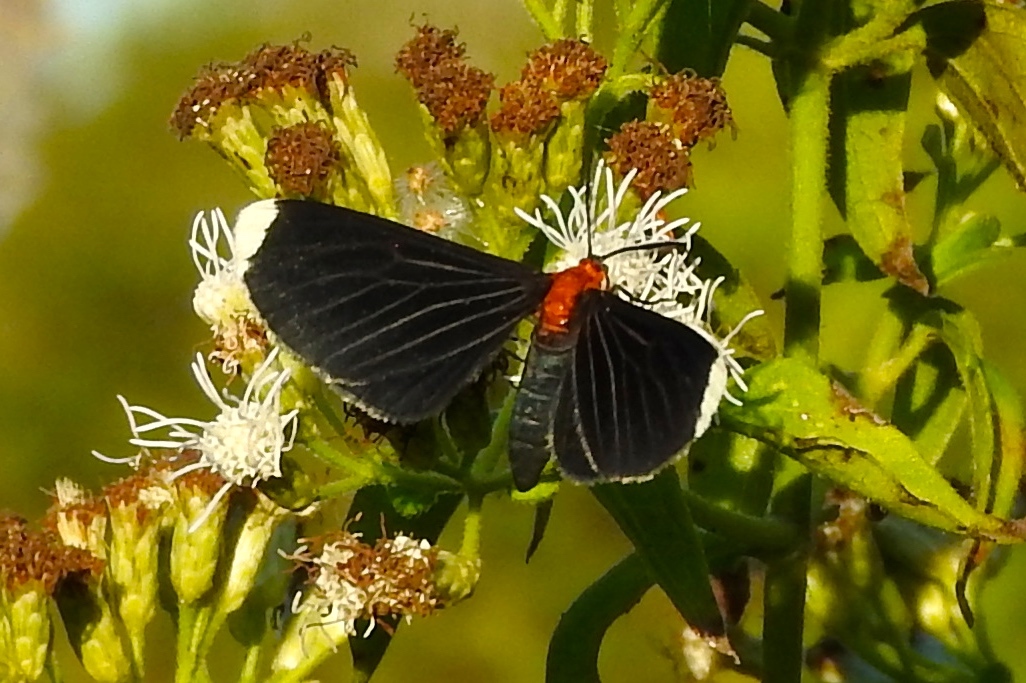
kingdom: Animalia
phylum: Arthropoda
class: Insecta
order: Lepidoptera
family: Geometridae
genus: Melanchroia
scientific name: Melanchroia chephise
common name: White-tipped black
